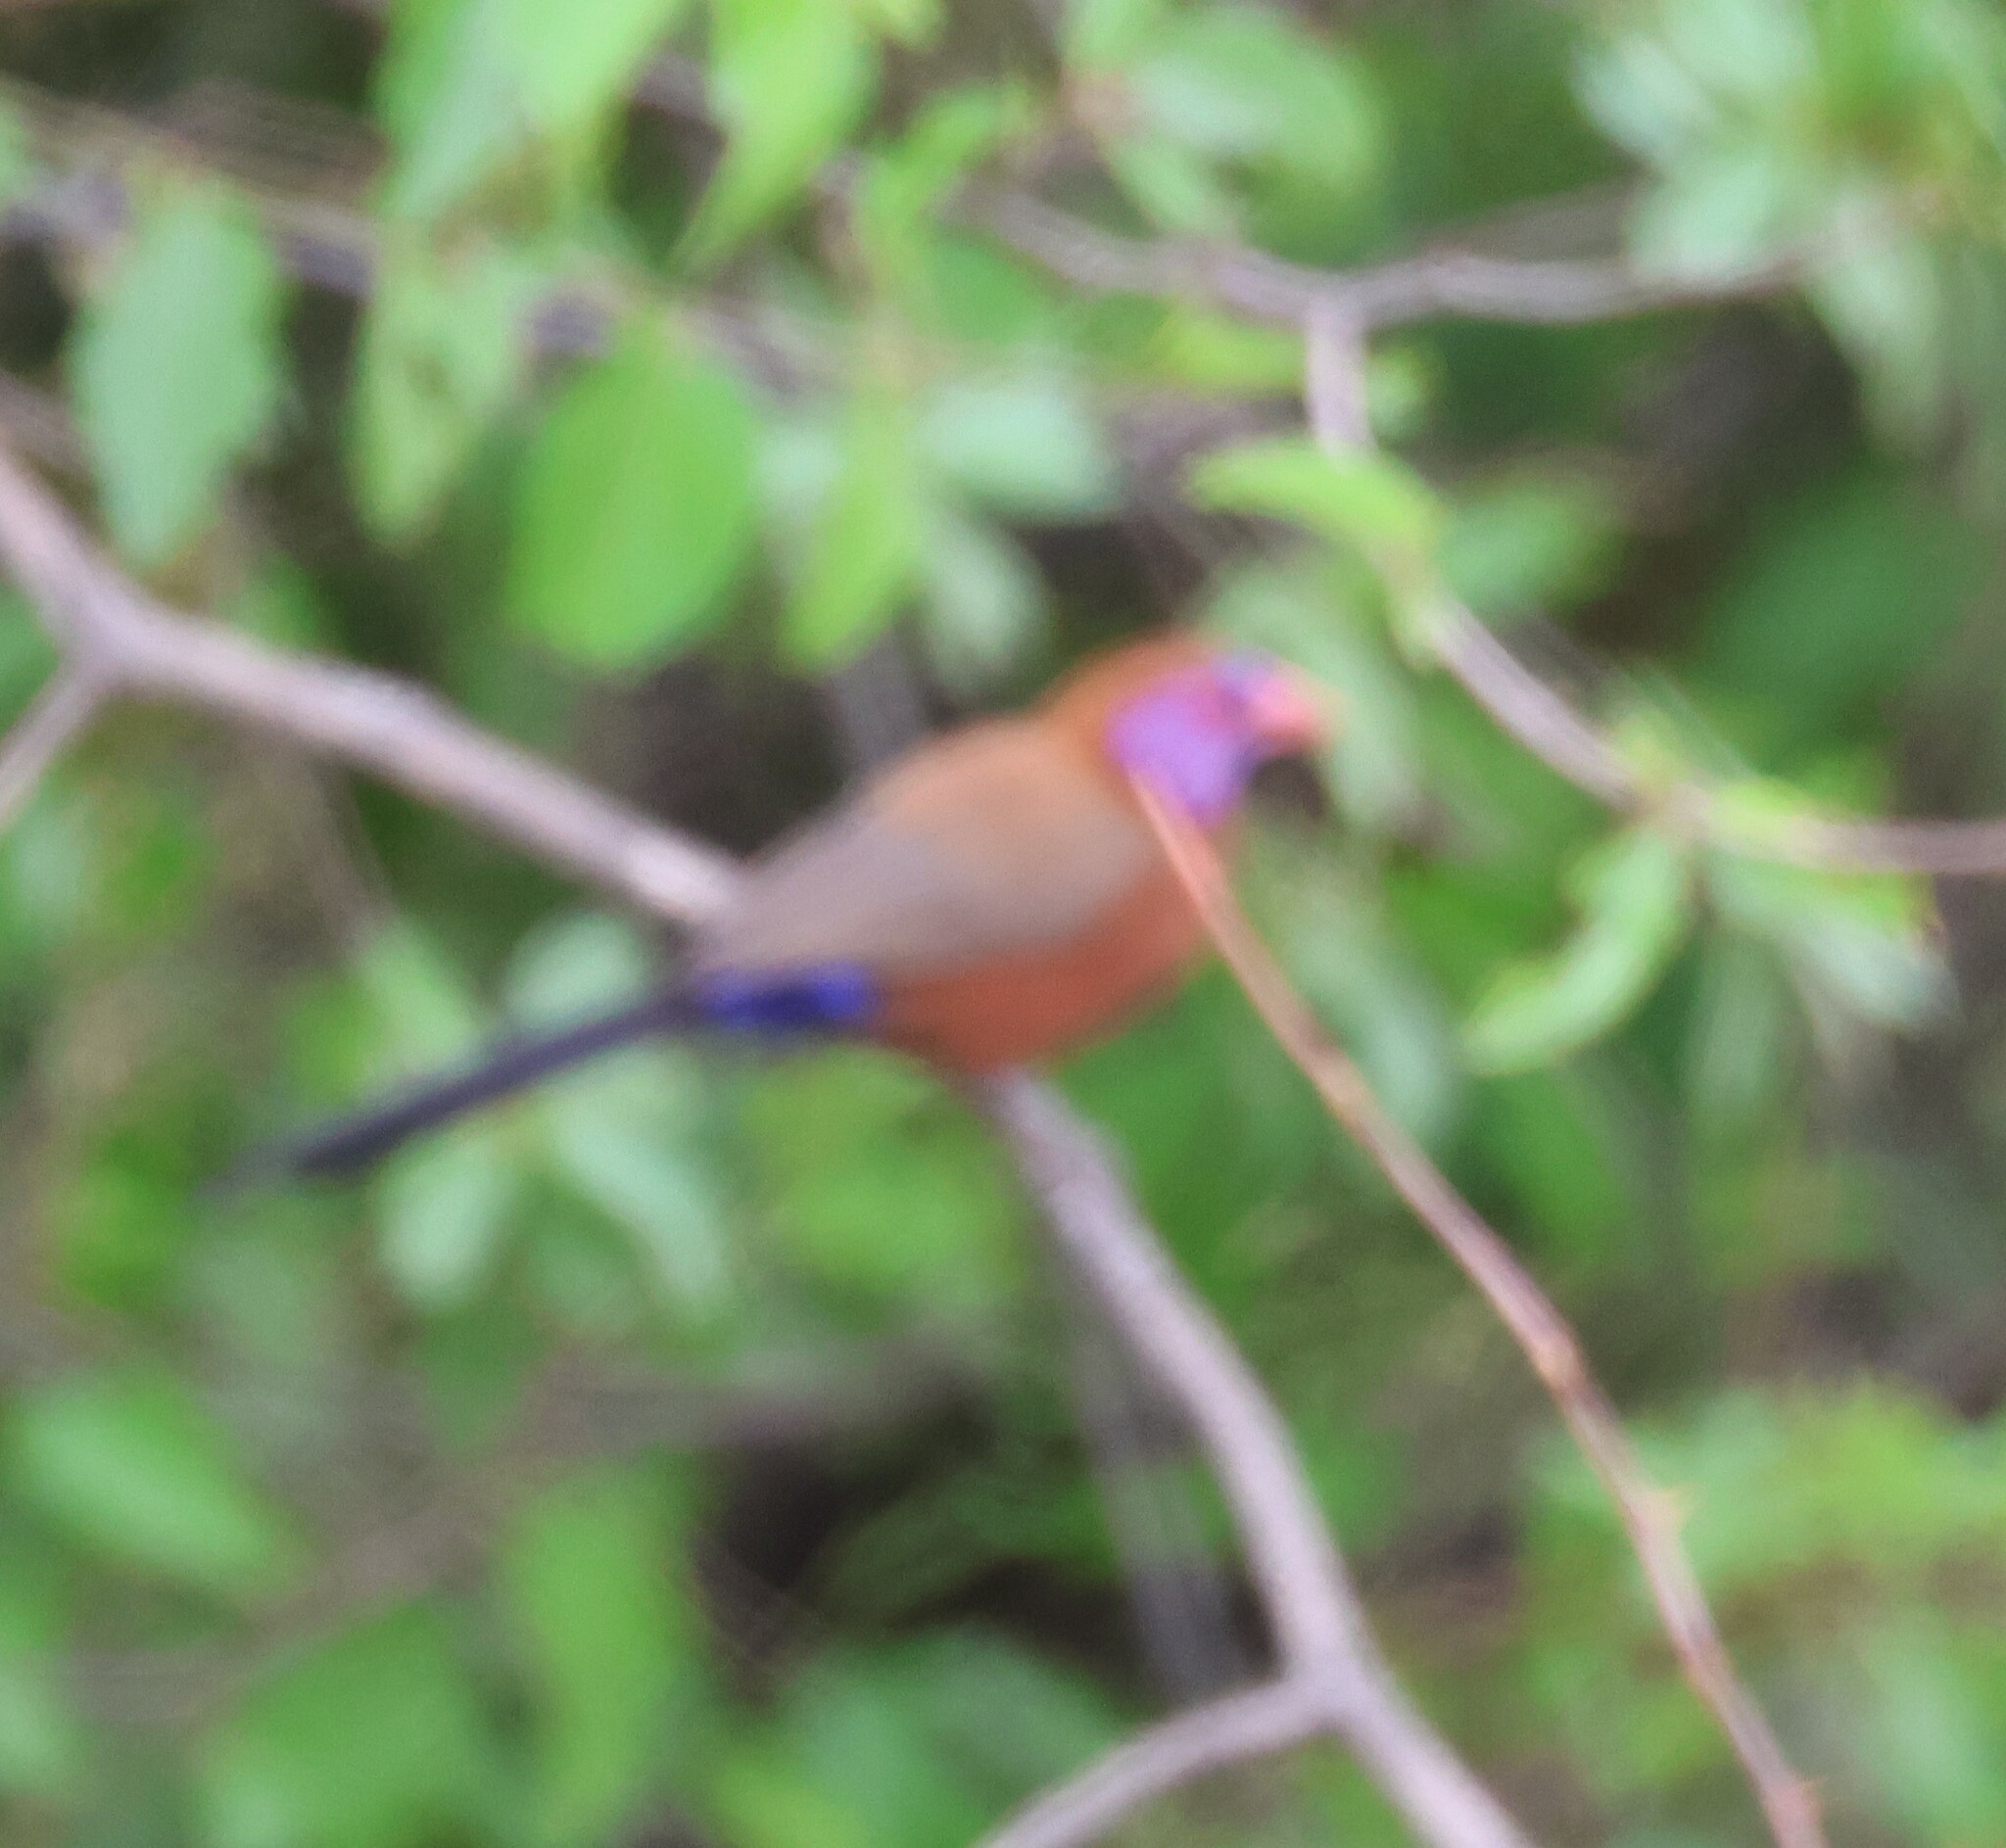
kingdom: Animalia
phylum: Chordata
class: Aves
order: Passeriformes
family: Estrildidae
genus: Uraeginthus
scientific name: Uraeginthus granatinus
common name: Violet-eared waxbill
